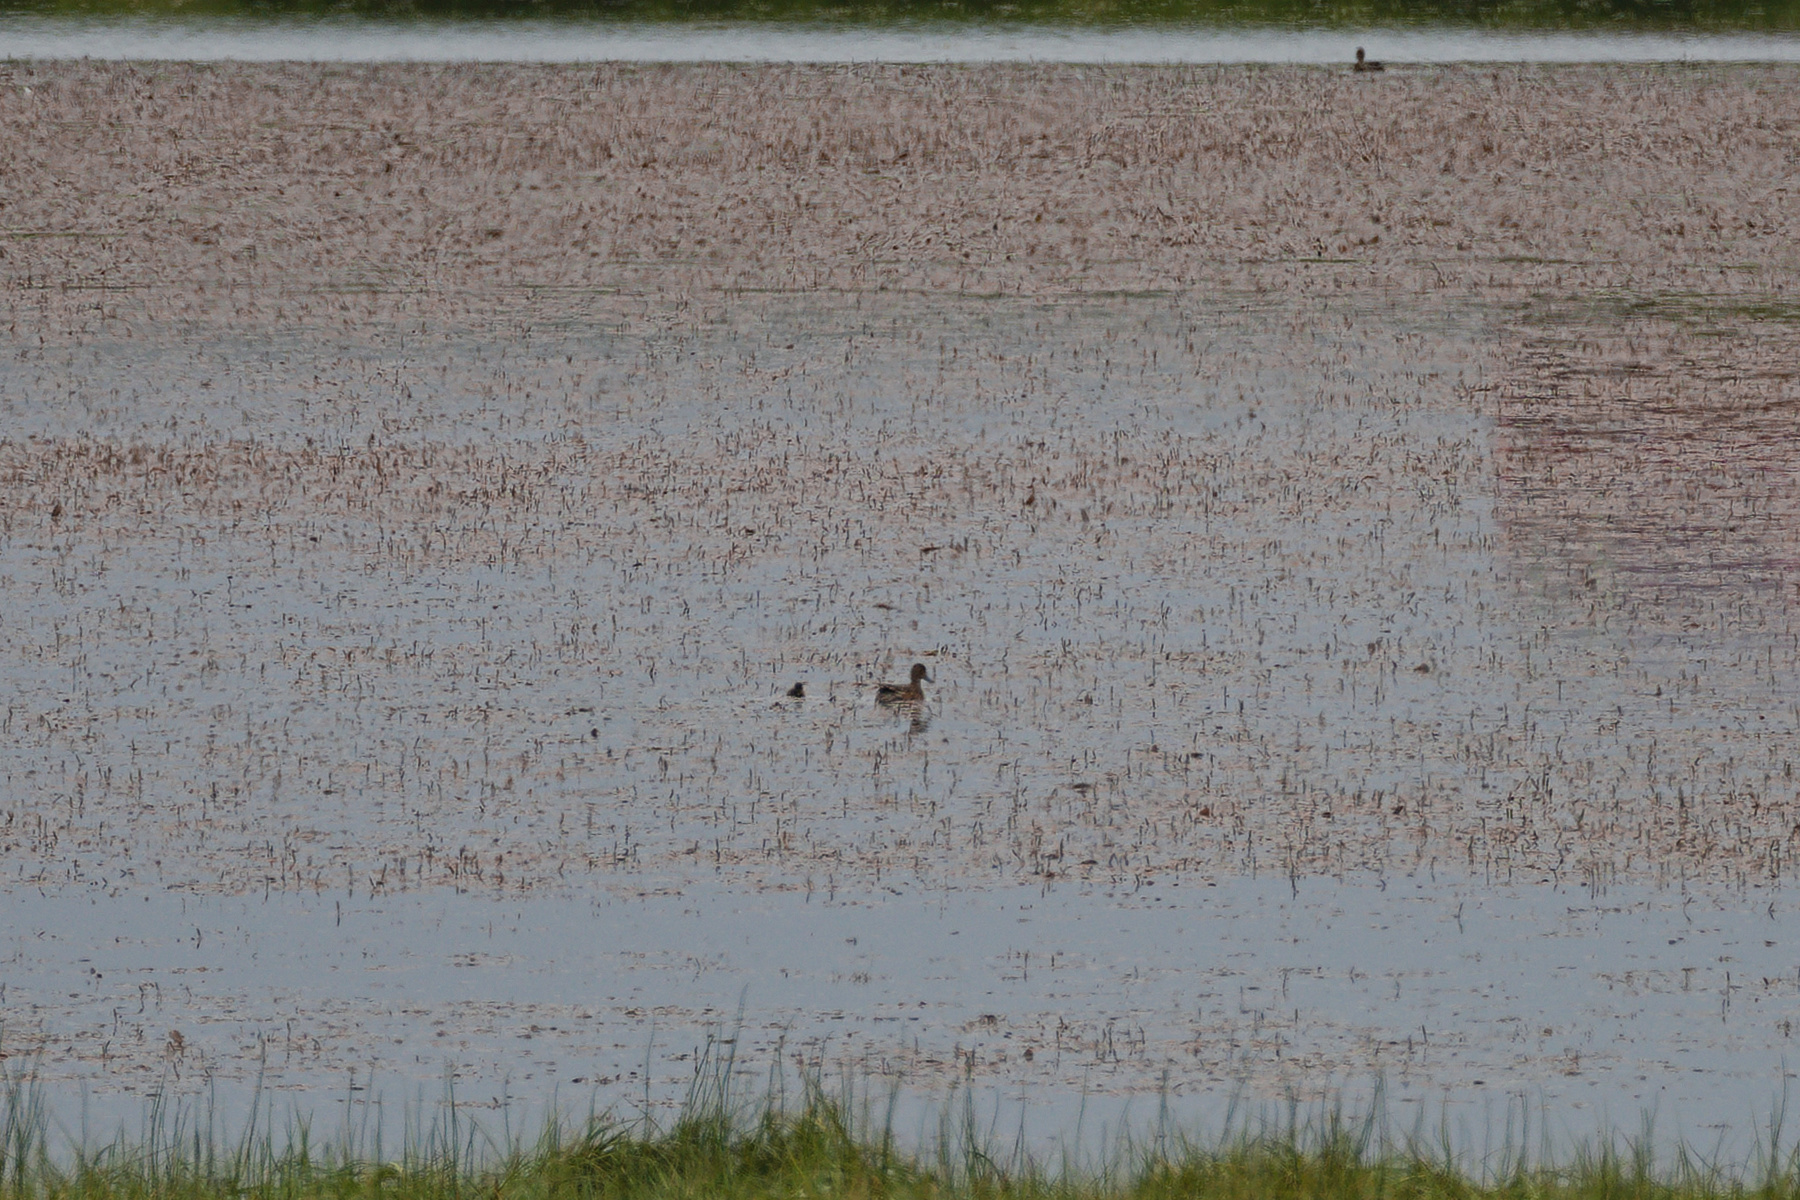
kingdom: Animalia
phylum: Chordata
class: Aves
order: Anseriformes
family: Anatidae
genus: Mareca
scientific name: Mareca penelope
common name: Eurasian wigeon
